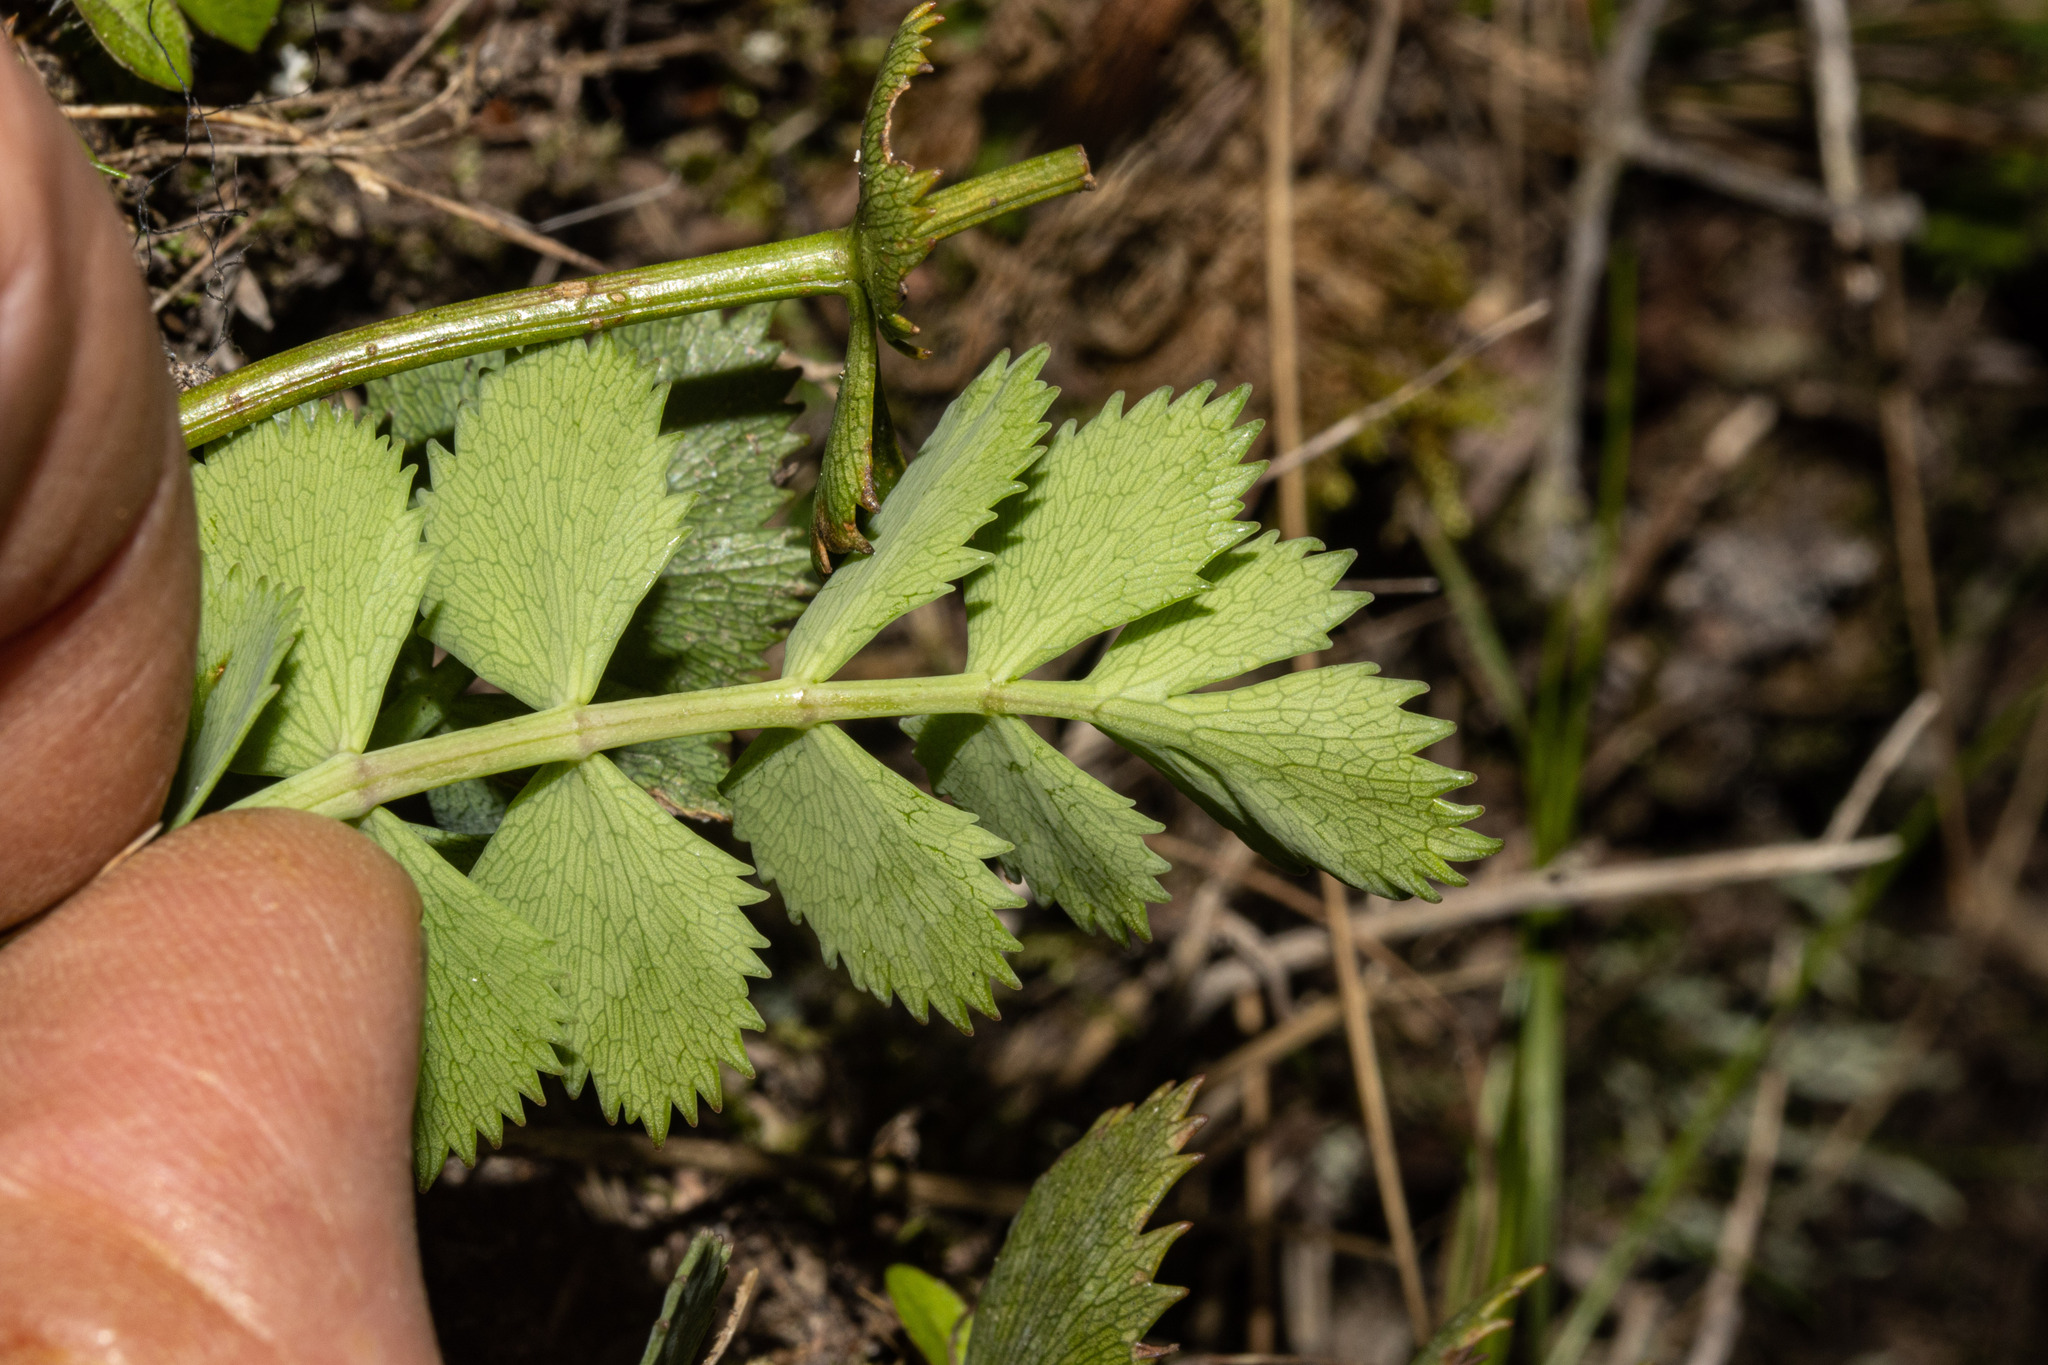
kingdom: Plantae
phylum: Tracheophyta
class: Magnoliopsida
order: Apiales
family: Apiaceae
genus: Gingidia
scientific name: Gingidia grisea
